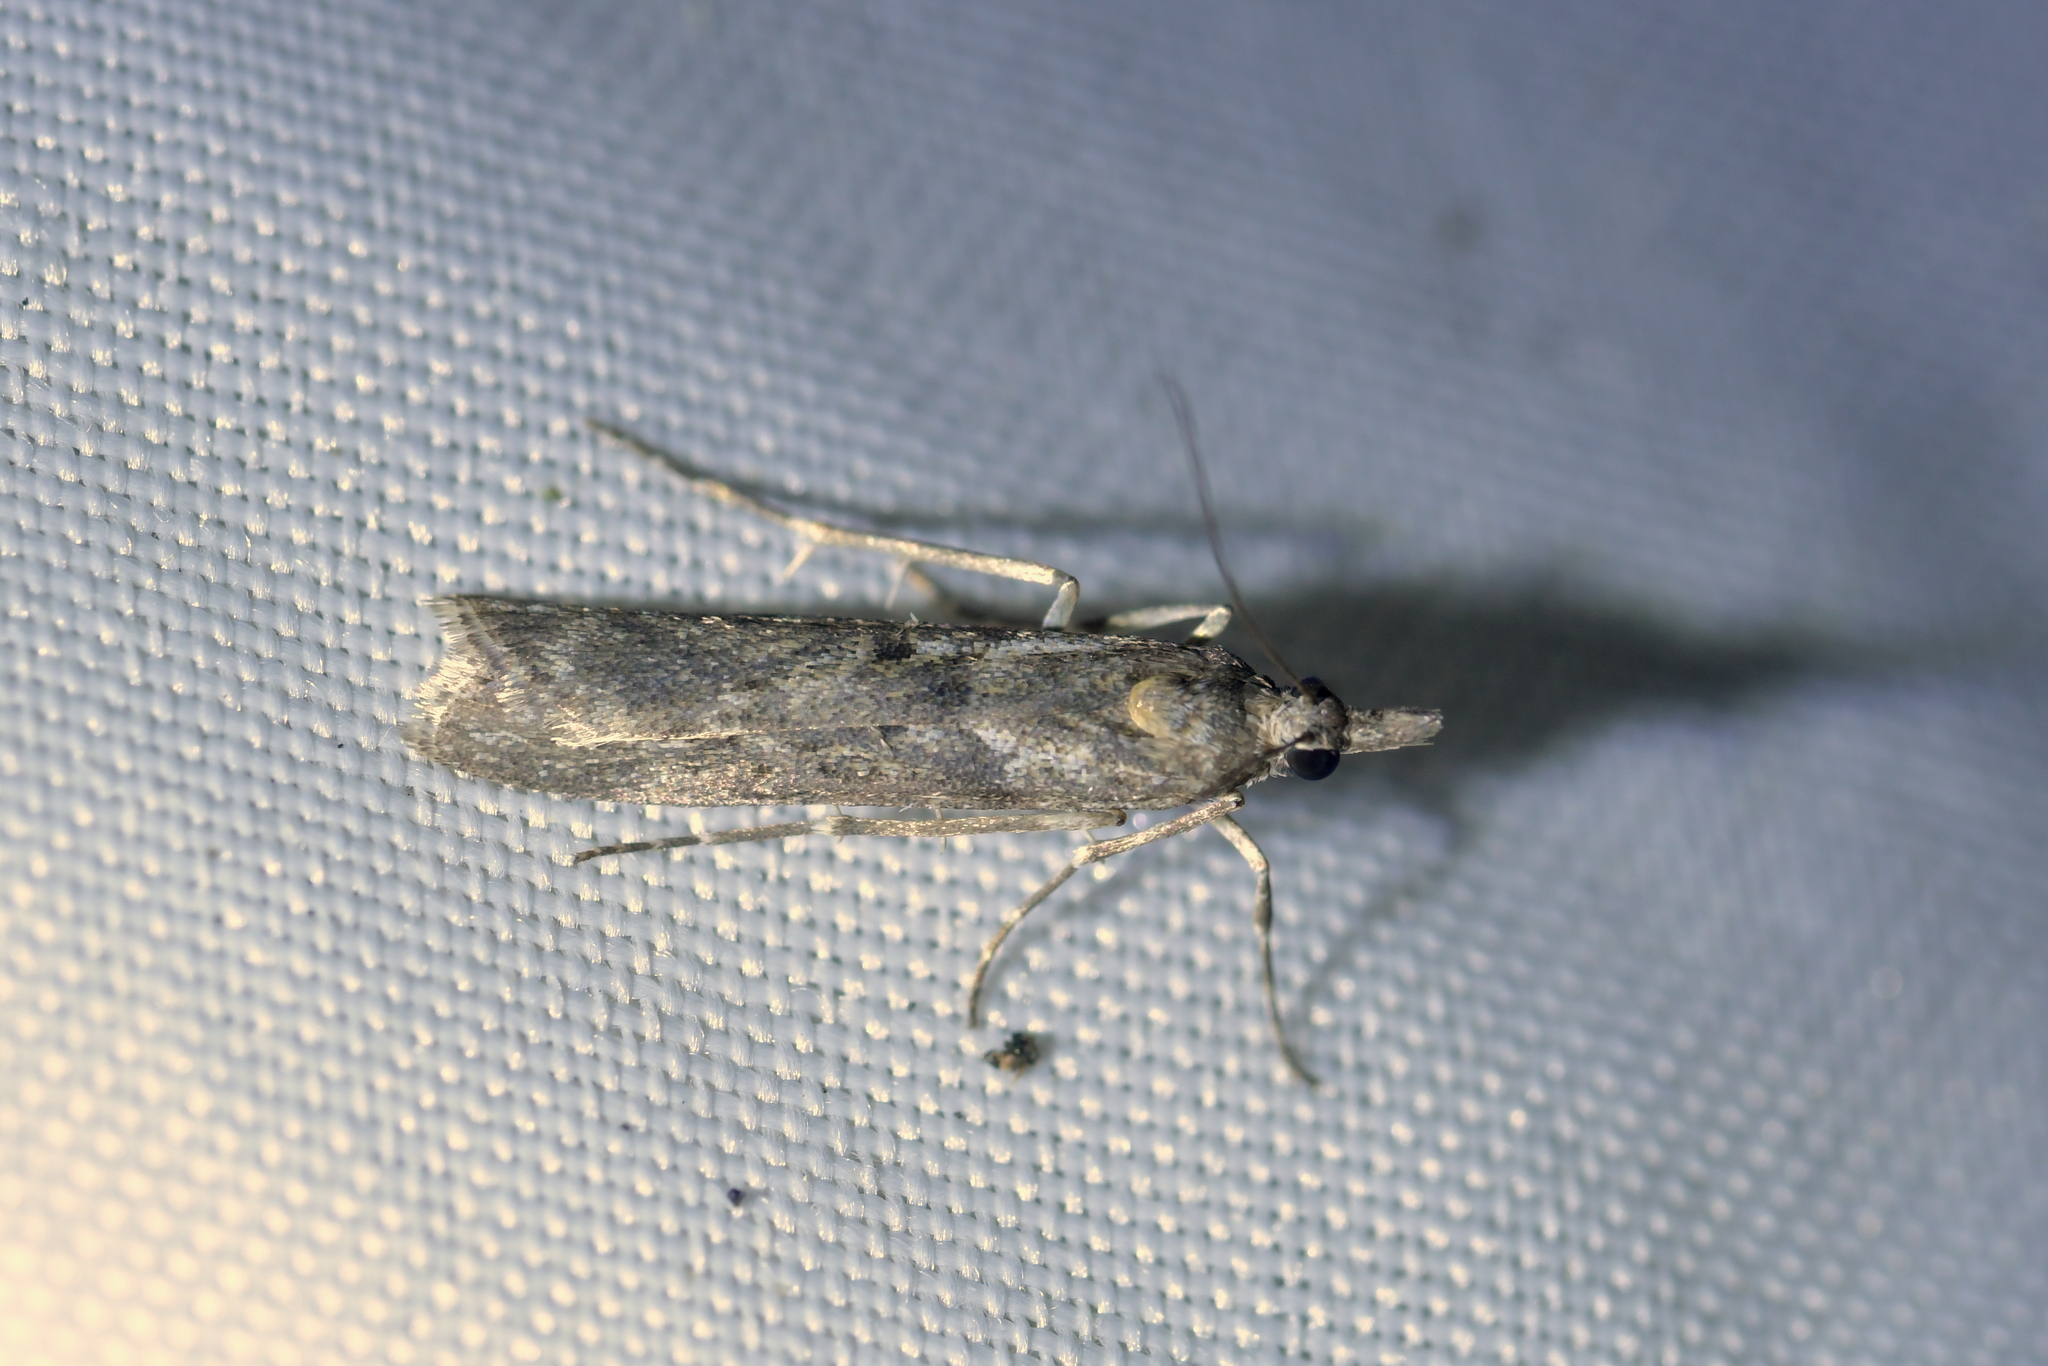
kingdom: Animalia
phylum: Arthropoda
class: Insecta
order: Lepidoptera
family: Crambidae
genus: Eudonia
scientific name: Eudonia leptalea
